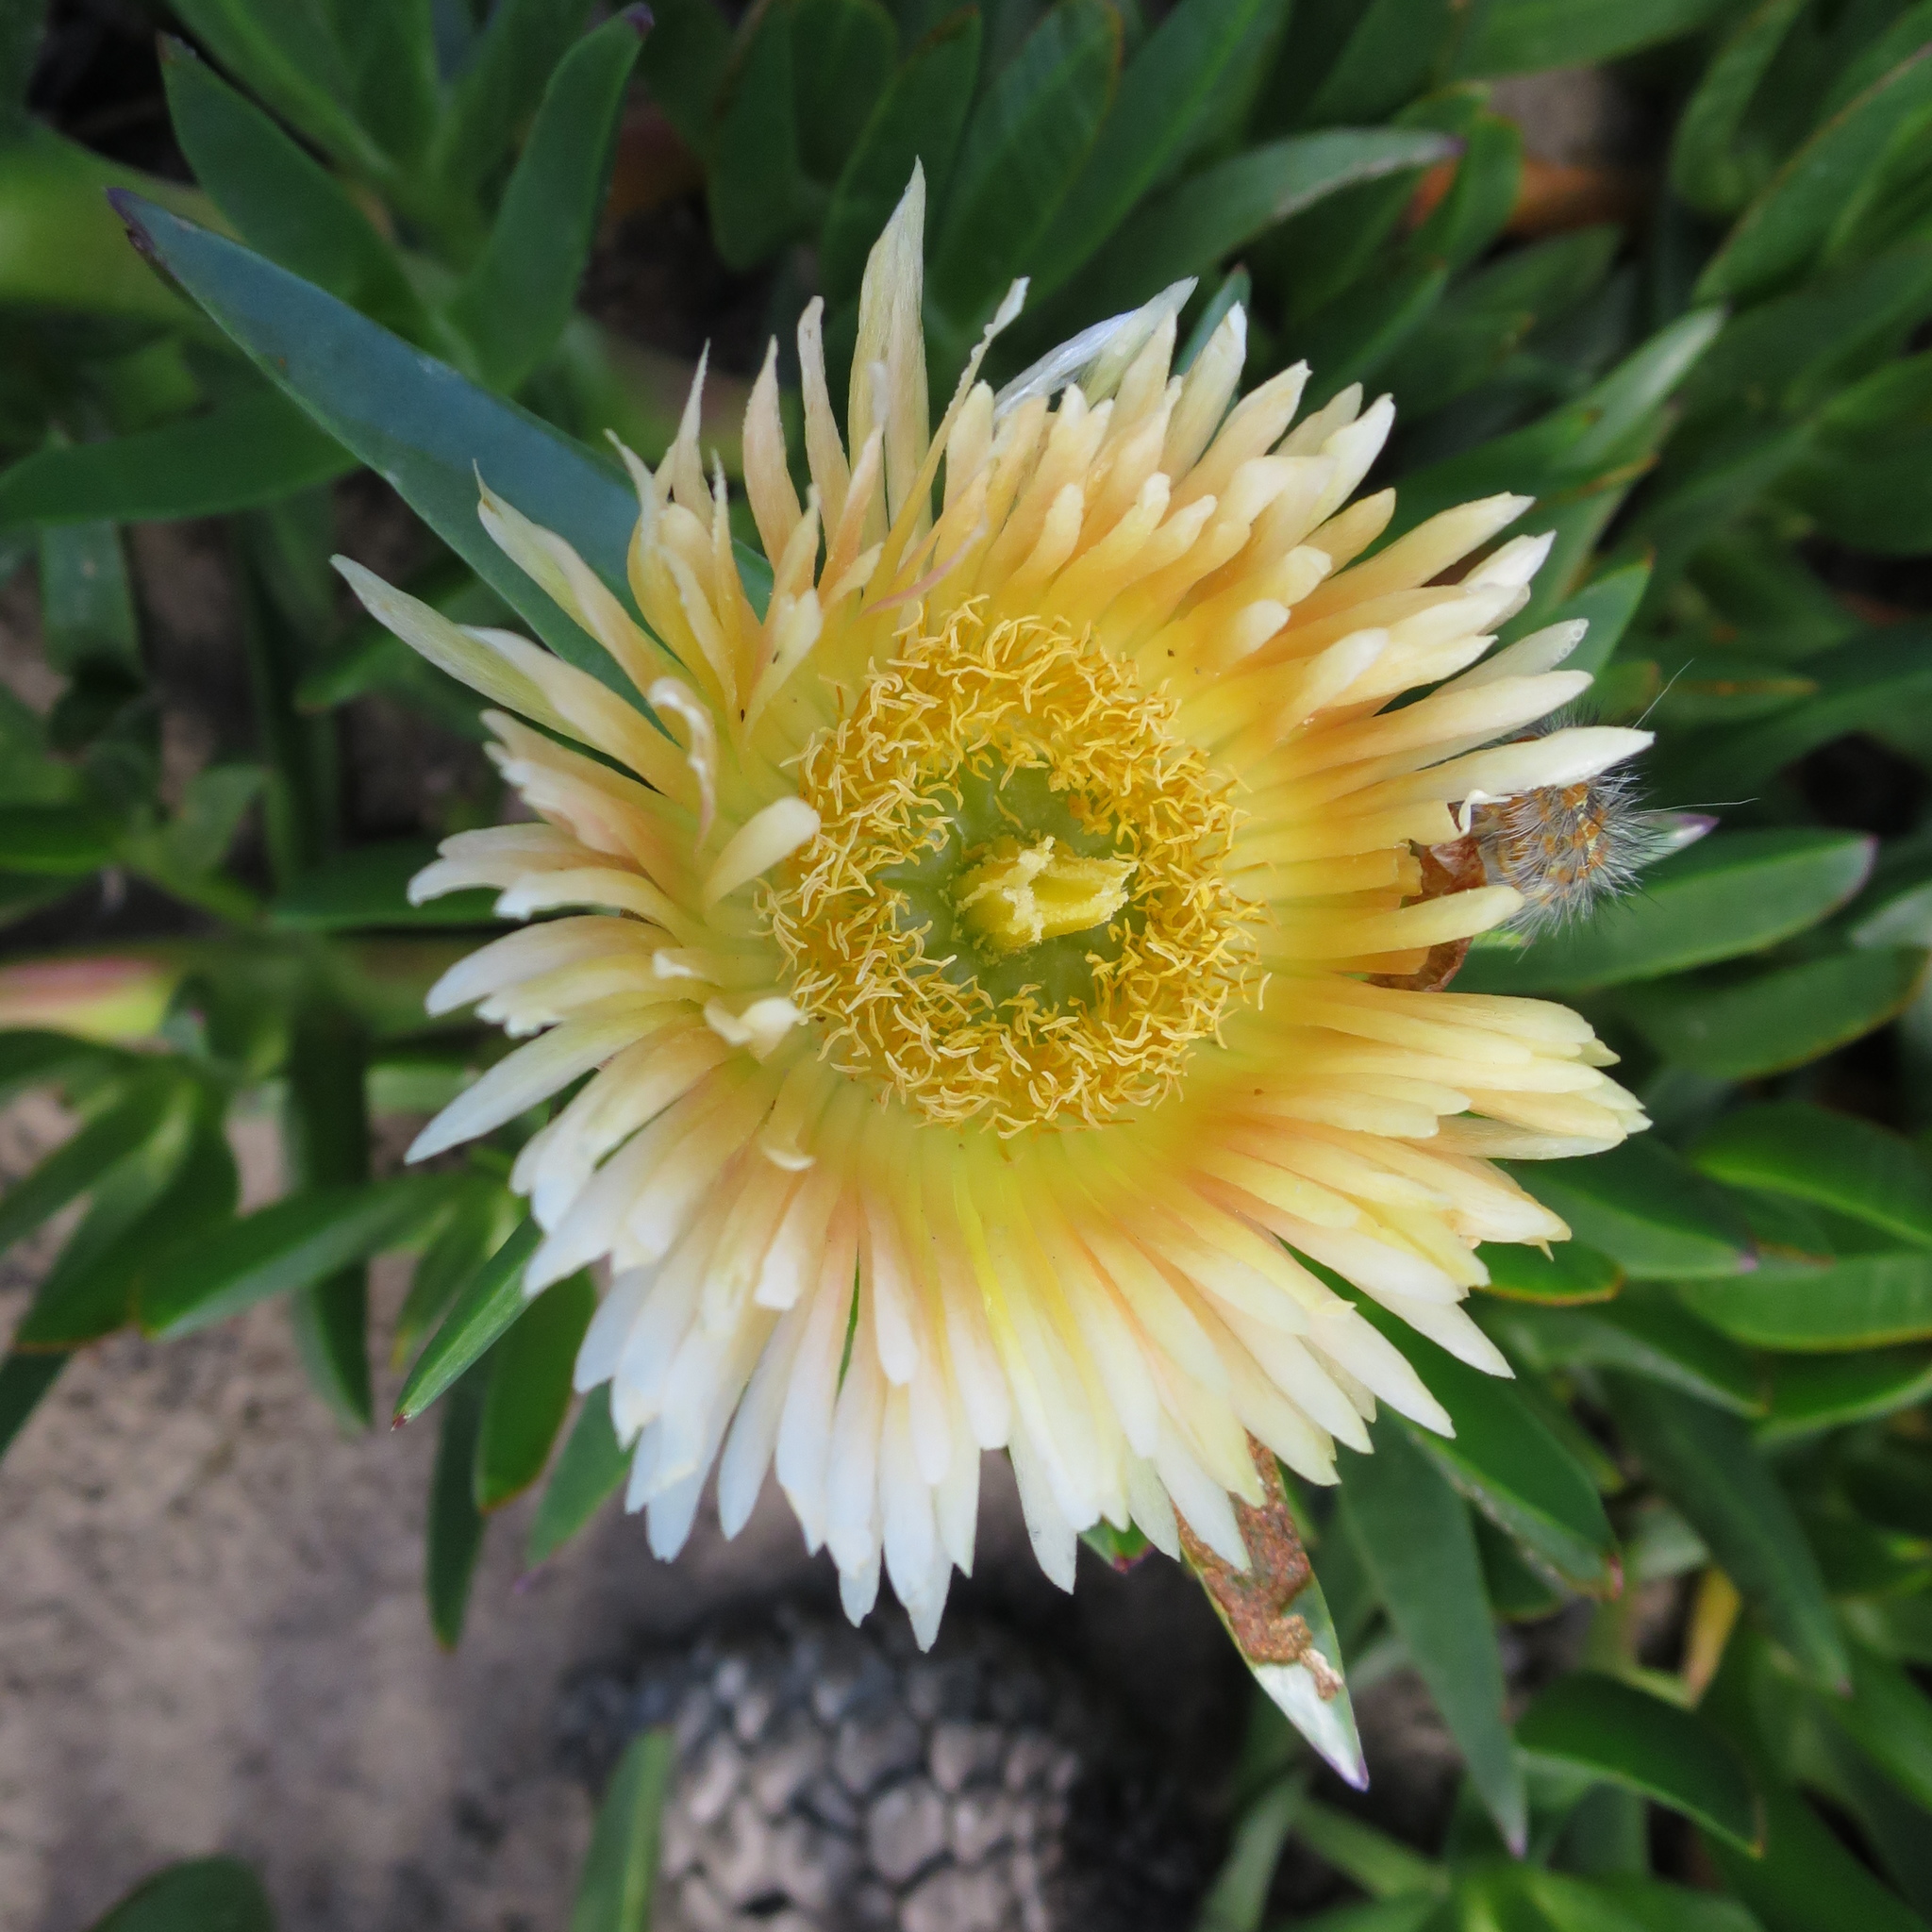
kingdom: Plantae
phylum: Tracheophyta
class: Magnoliopsida
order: Caryophyllales
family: Aizoaceae
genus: Carpobrotus
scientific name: Carpobrotus edulis
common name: Hottentot-fig
